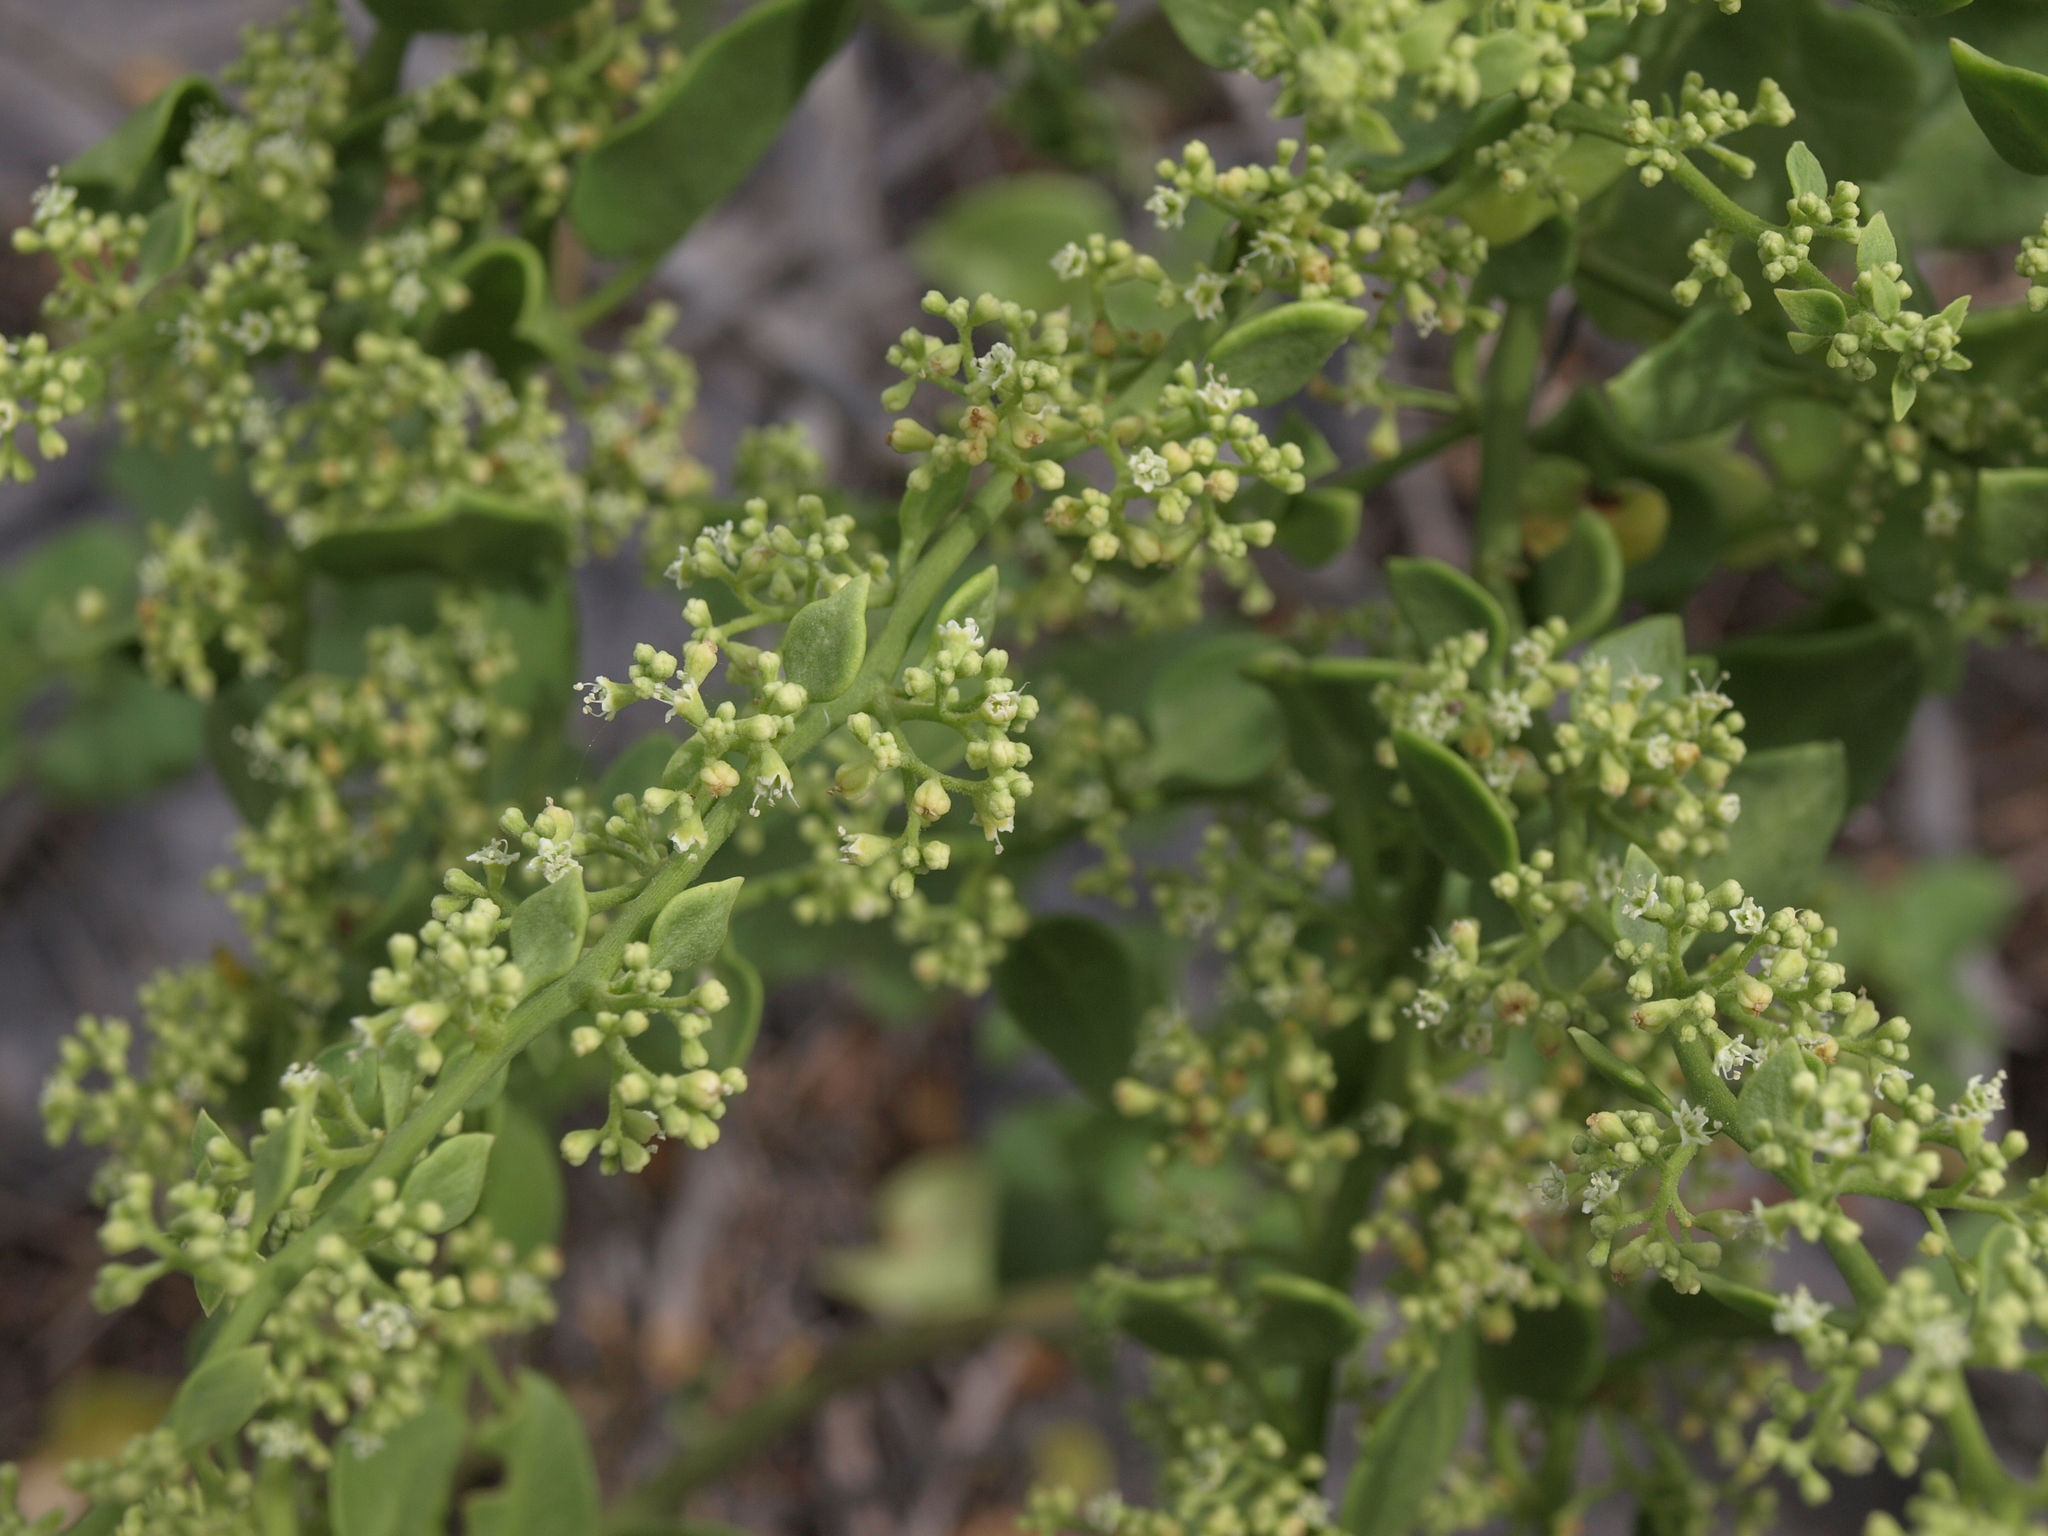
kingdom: Plantae
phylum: Tracheophyta
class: Magnoliopsida
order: Caryophyllales
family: Nyctaginaceae
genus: Cryptocarpus
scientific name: Cryptocarpus pyriformis
